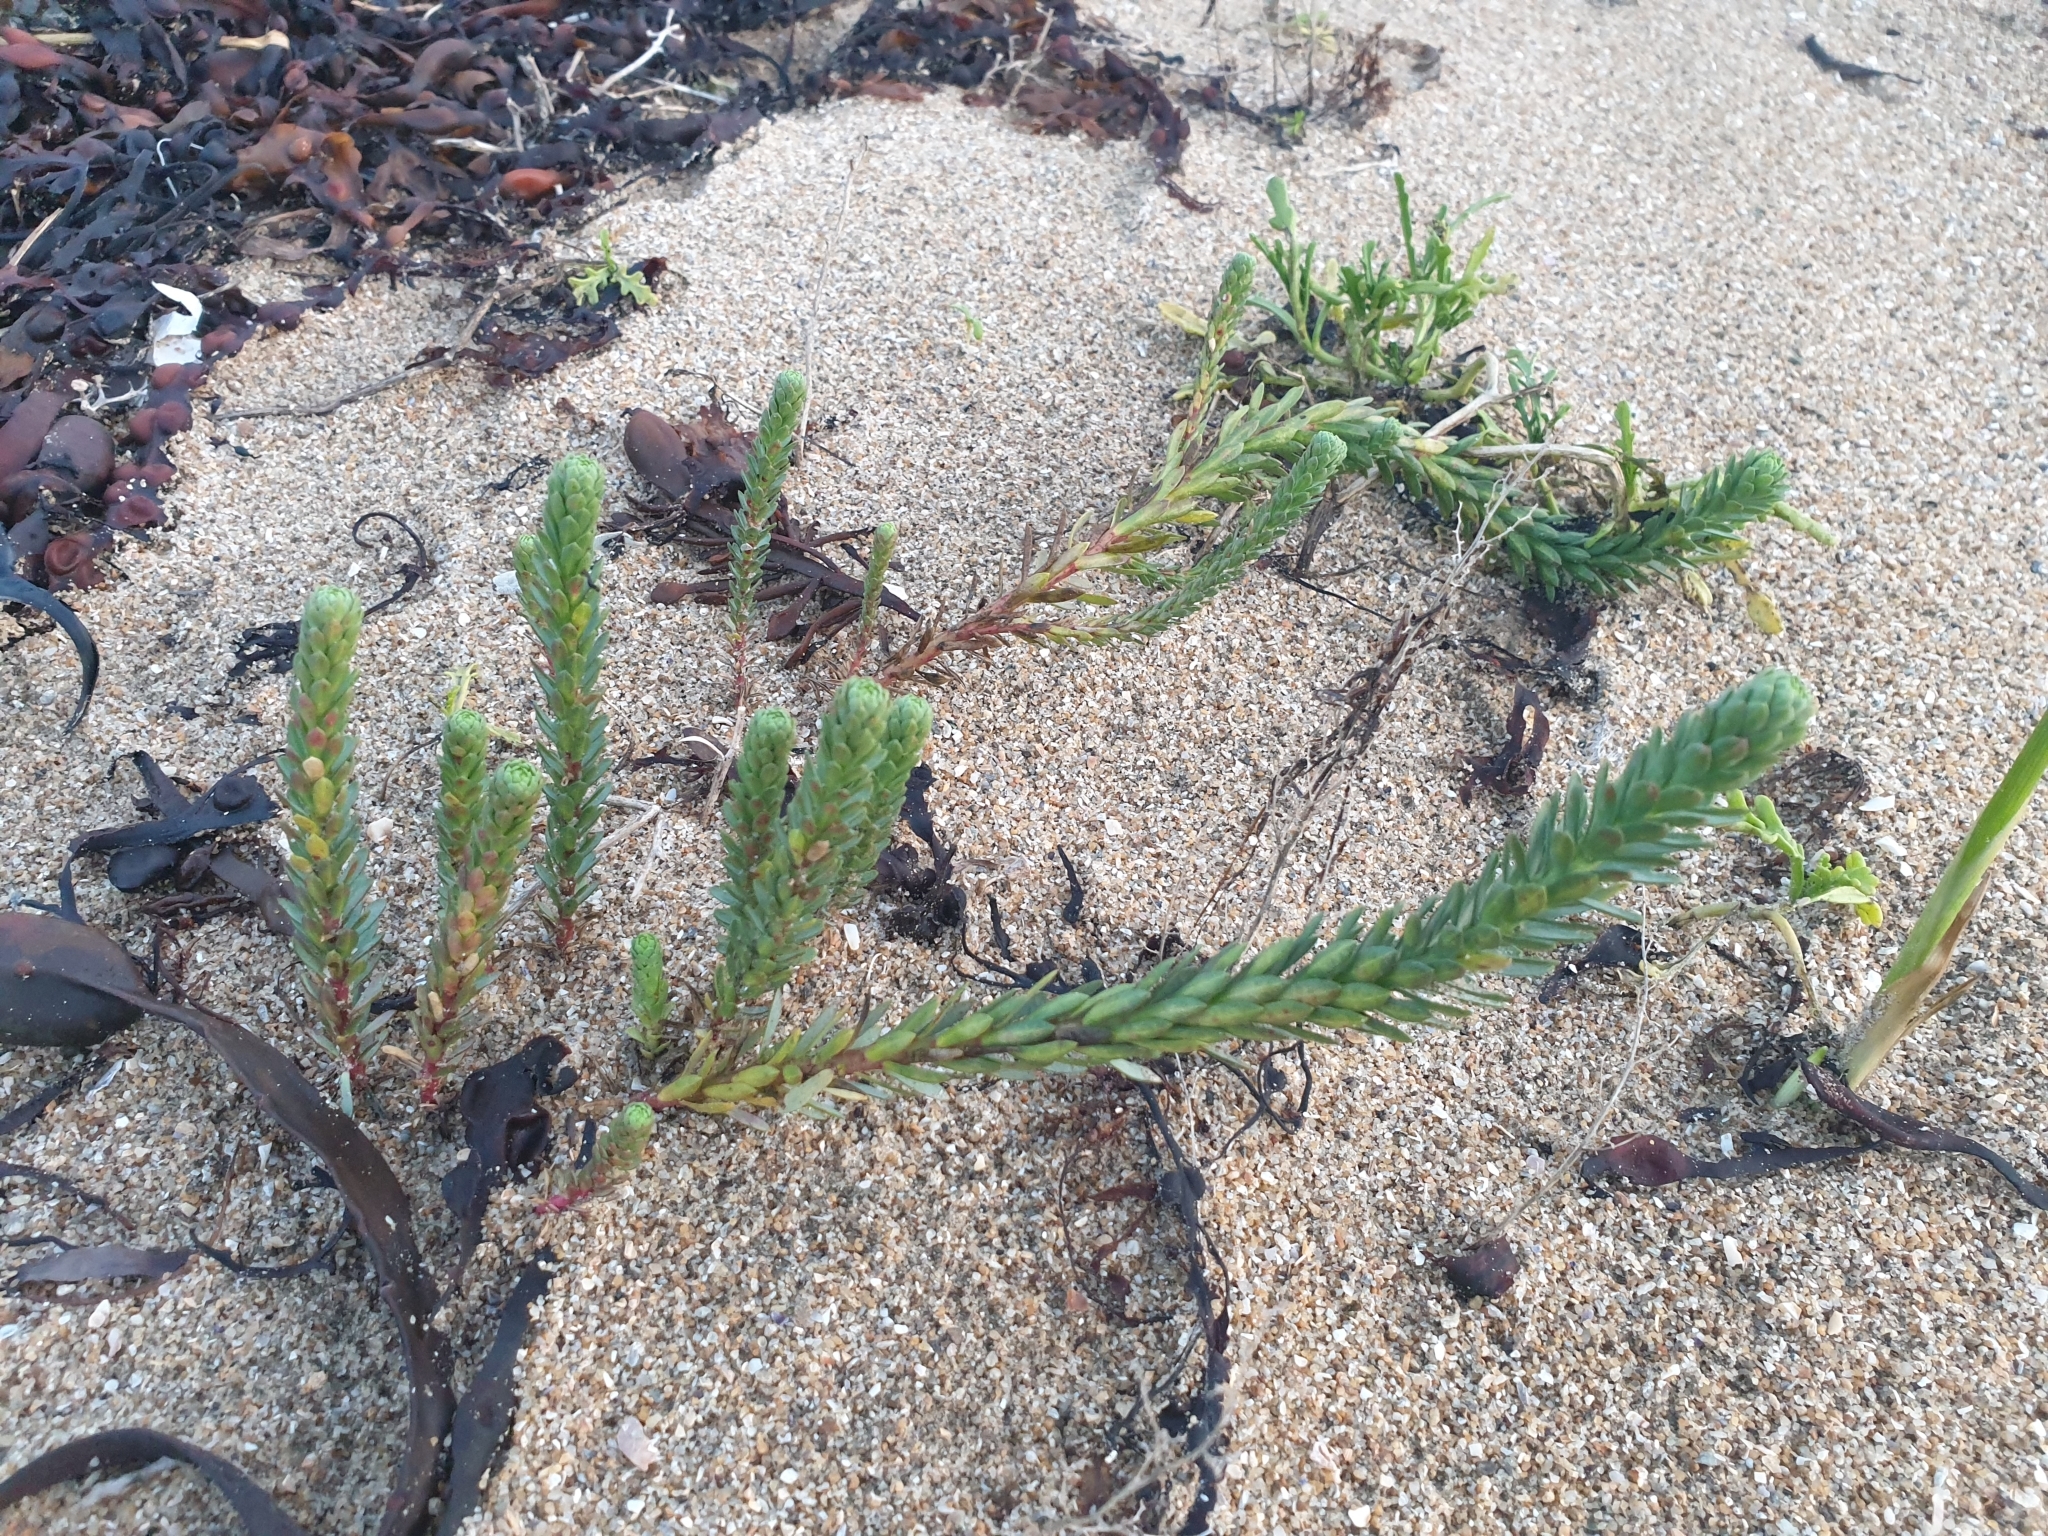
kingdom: Plantae
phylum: Tracheophyta
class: Magnoliopsida
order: Malpighiales
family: Euphorbiaceae
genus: Euphorbia
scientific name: Euphorbia paralias
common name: Sea spurge
